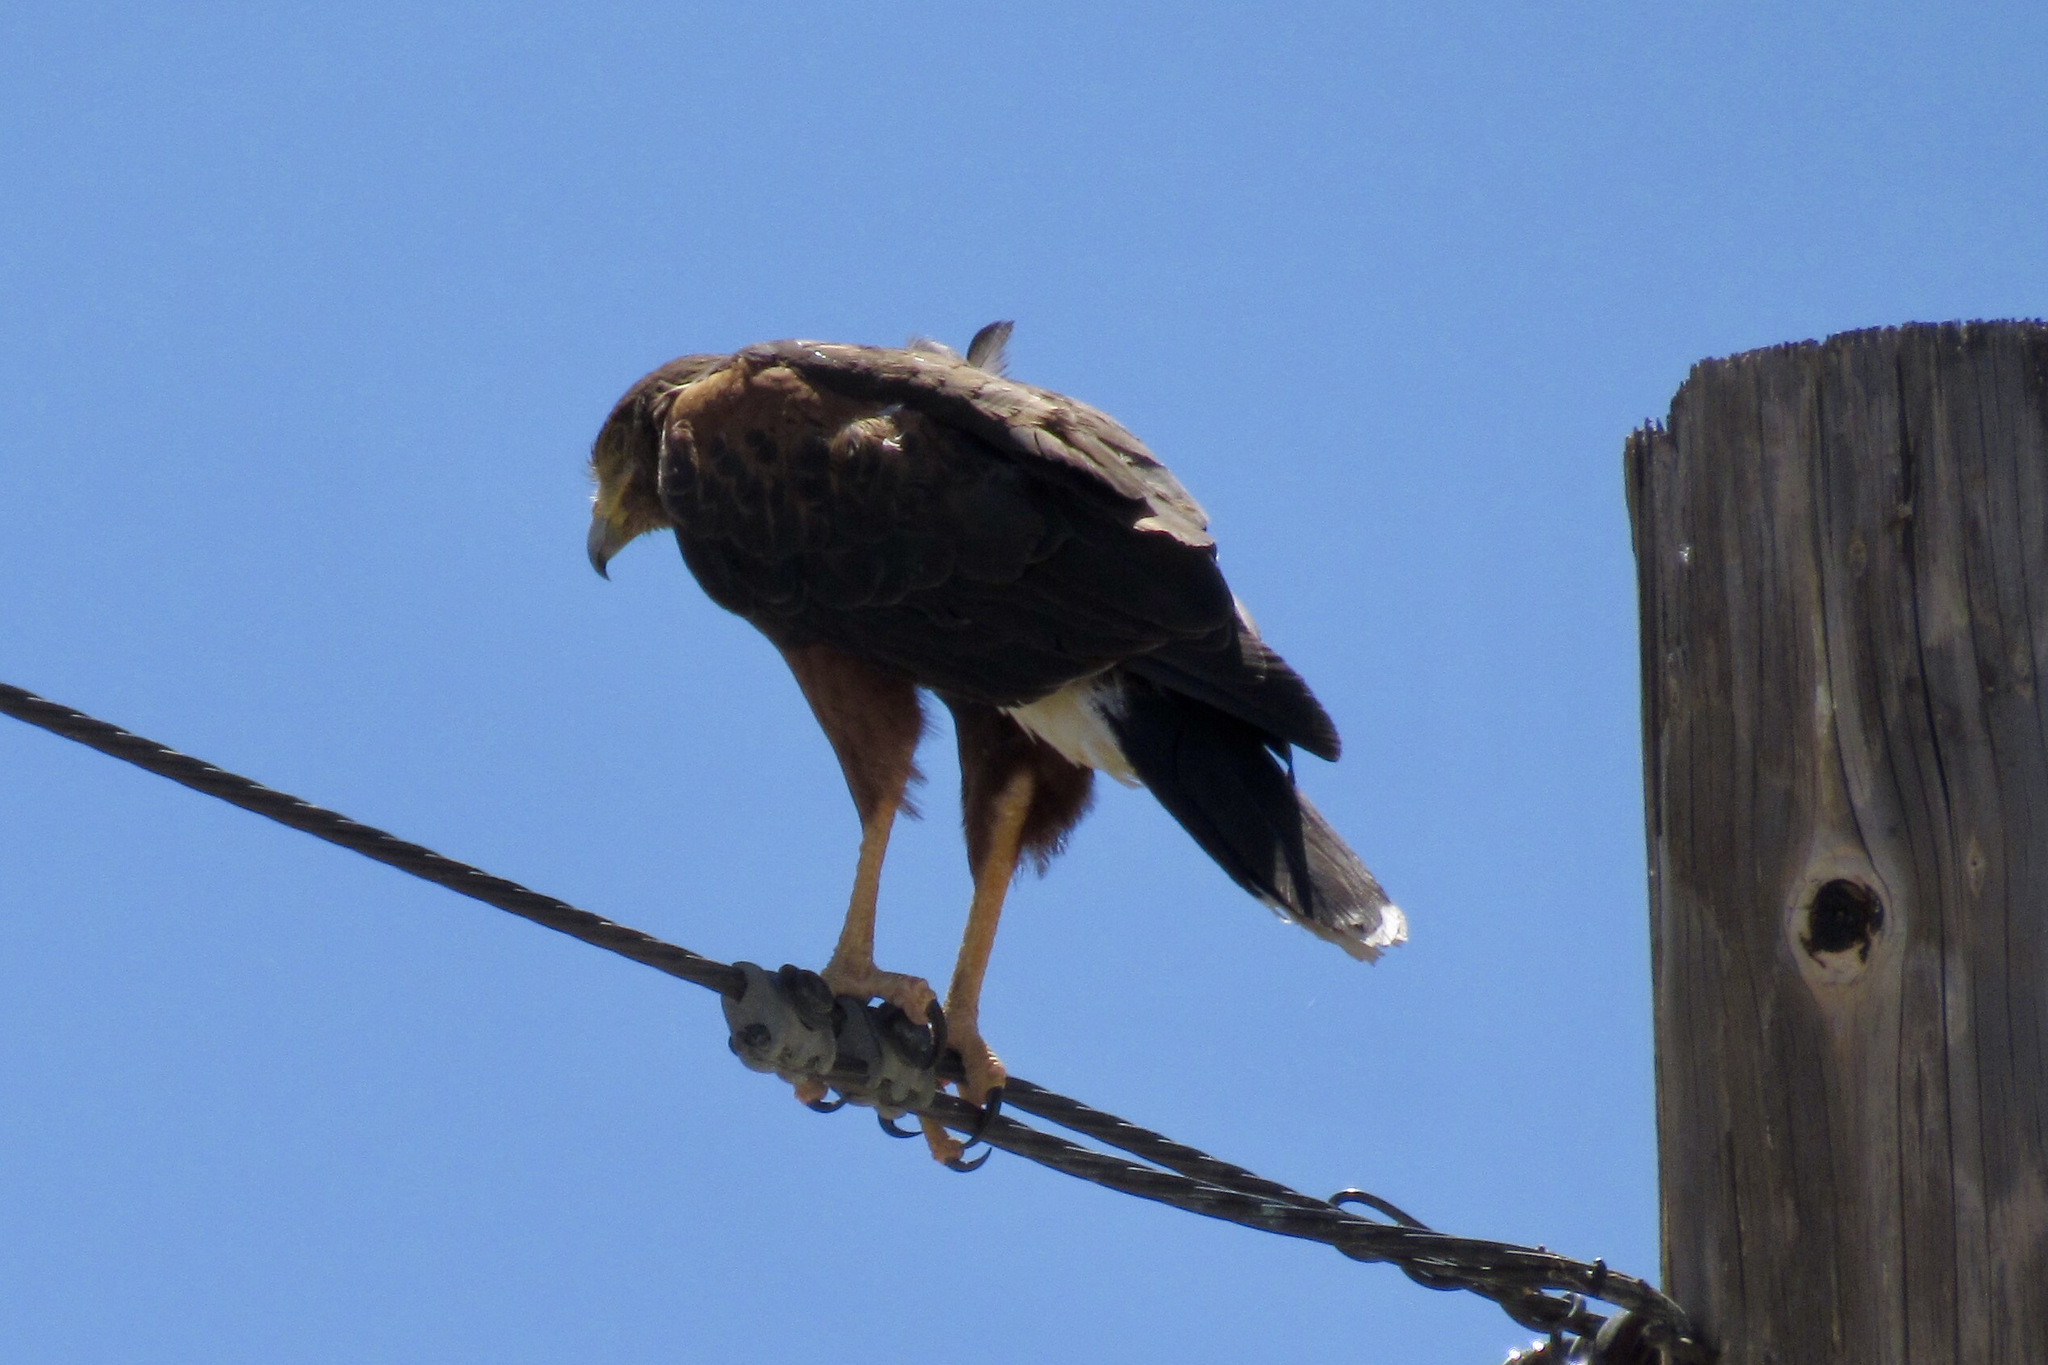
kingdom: Animalia
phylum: Chordata
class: Aves
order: Accipitriformes
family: Accipitridae
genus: Parabuteo
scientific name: Parabuteo unicinctus
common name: Harris's hawk
